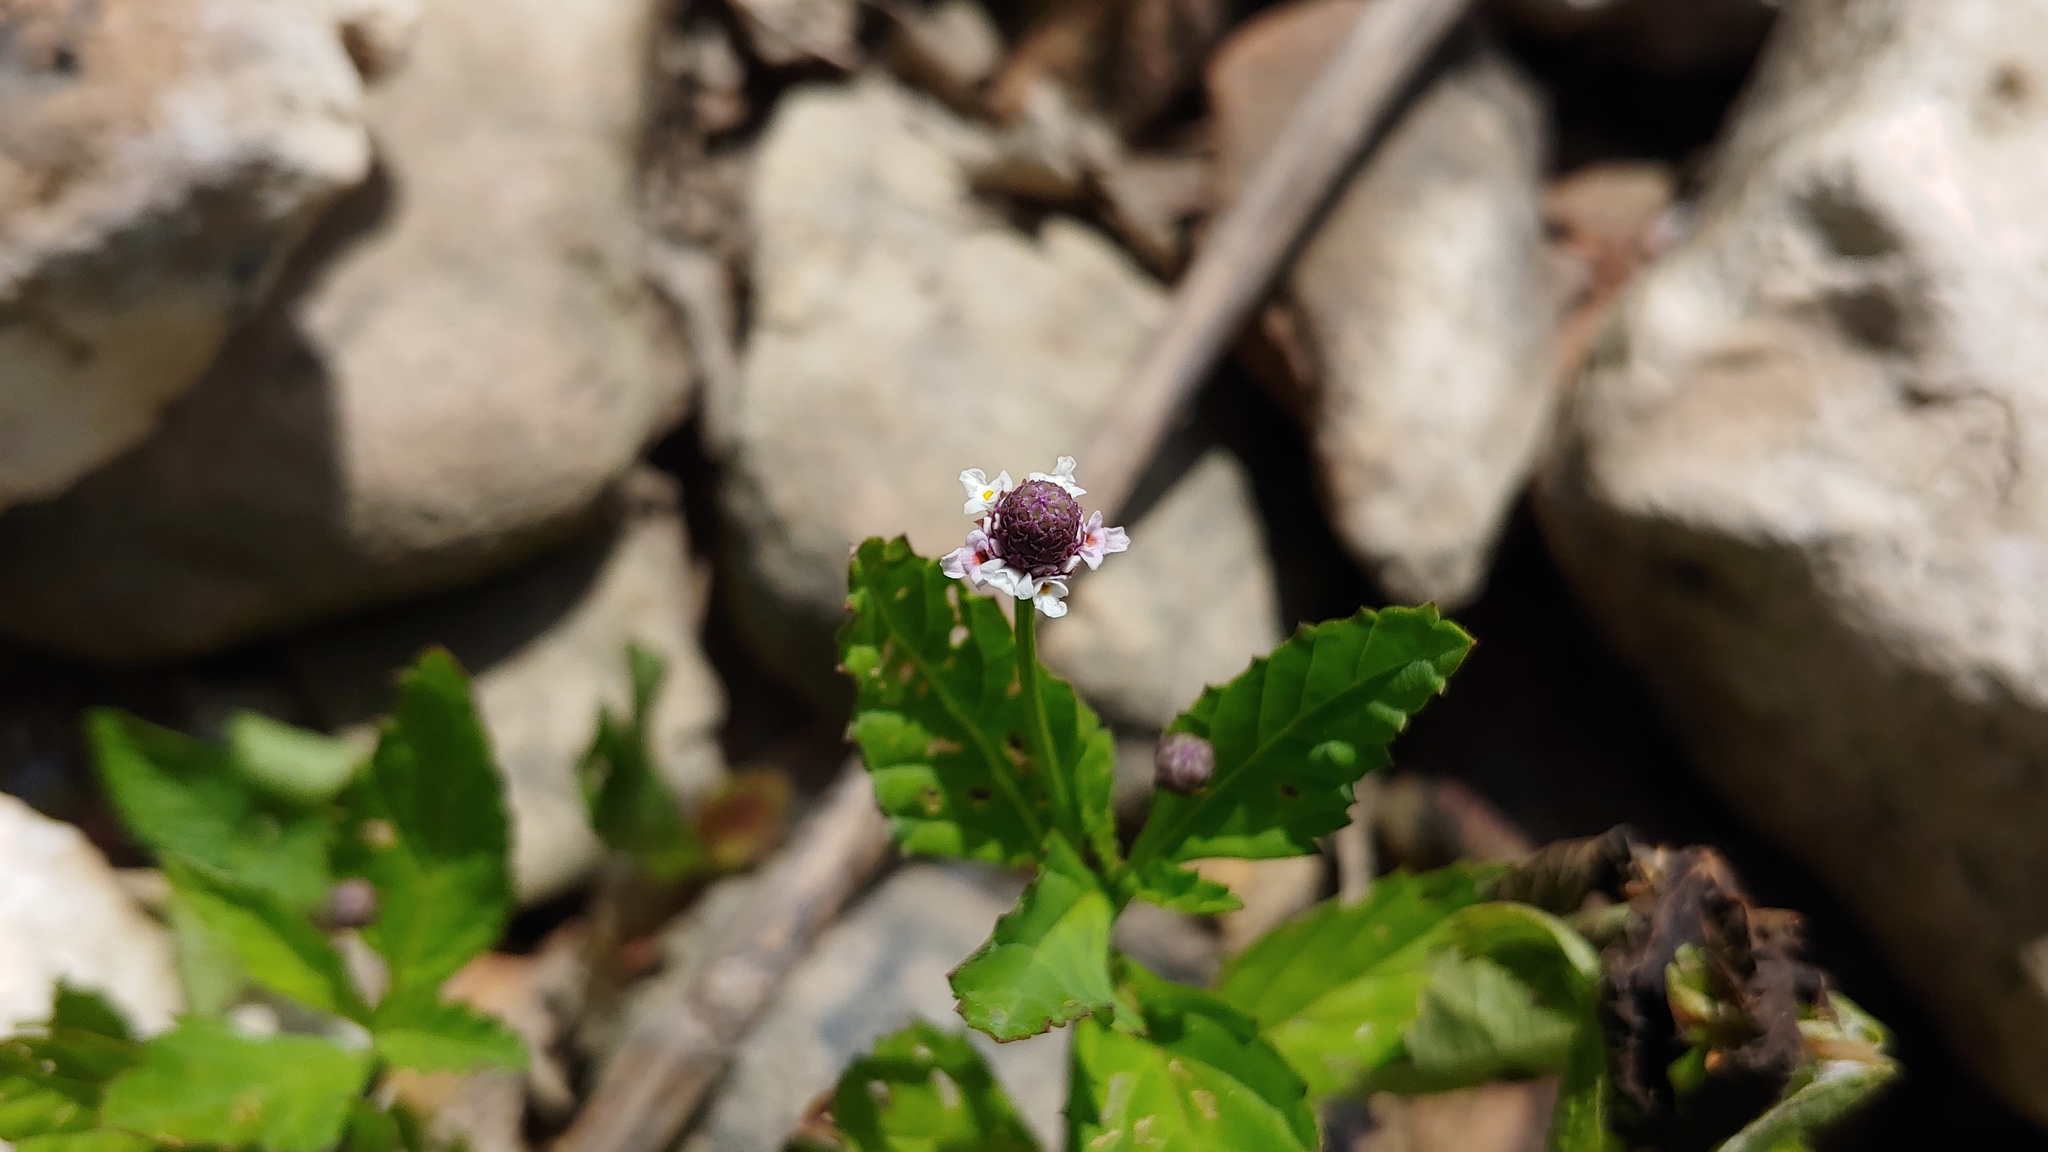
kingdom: Plantae
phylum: Tracheophyta
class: Magnoliopsida
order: Lamiales
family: Verbenaceae
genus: Phyla
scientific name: Phyla lanceolata
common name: Northern fogfruit
